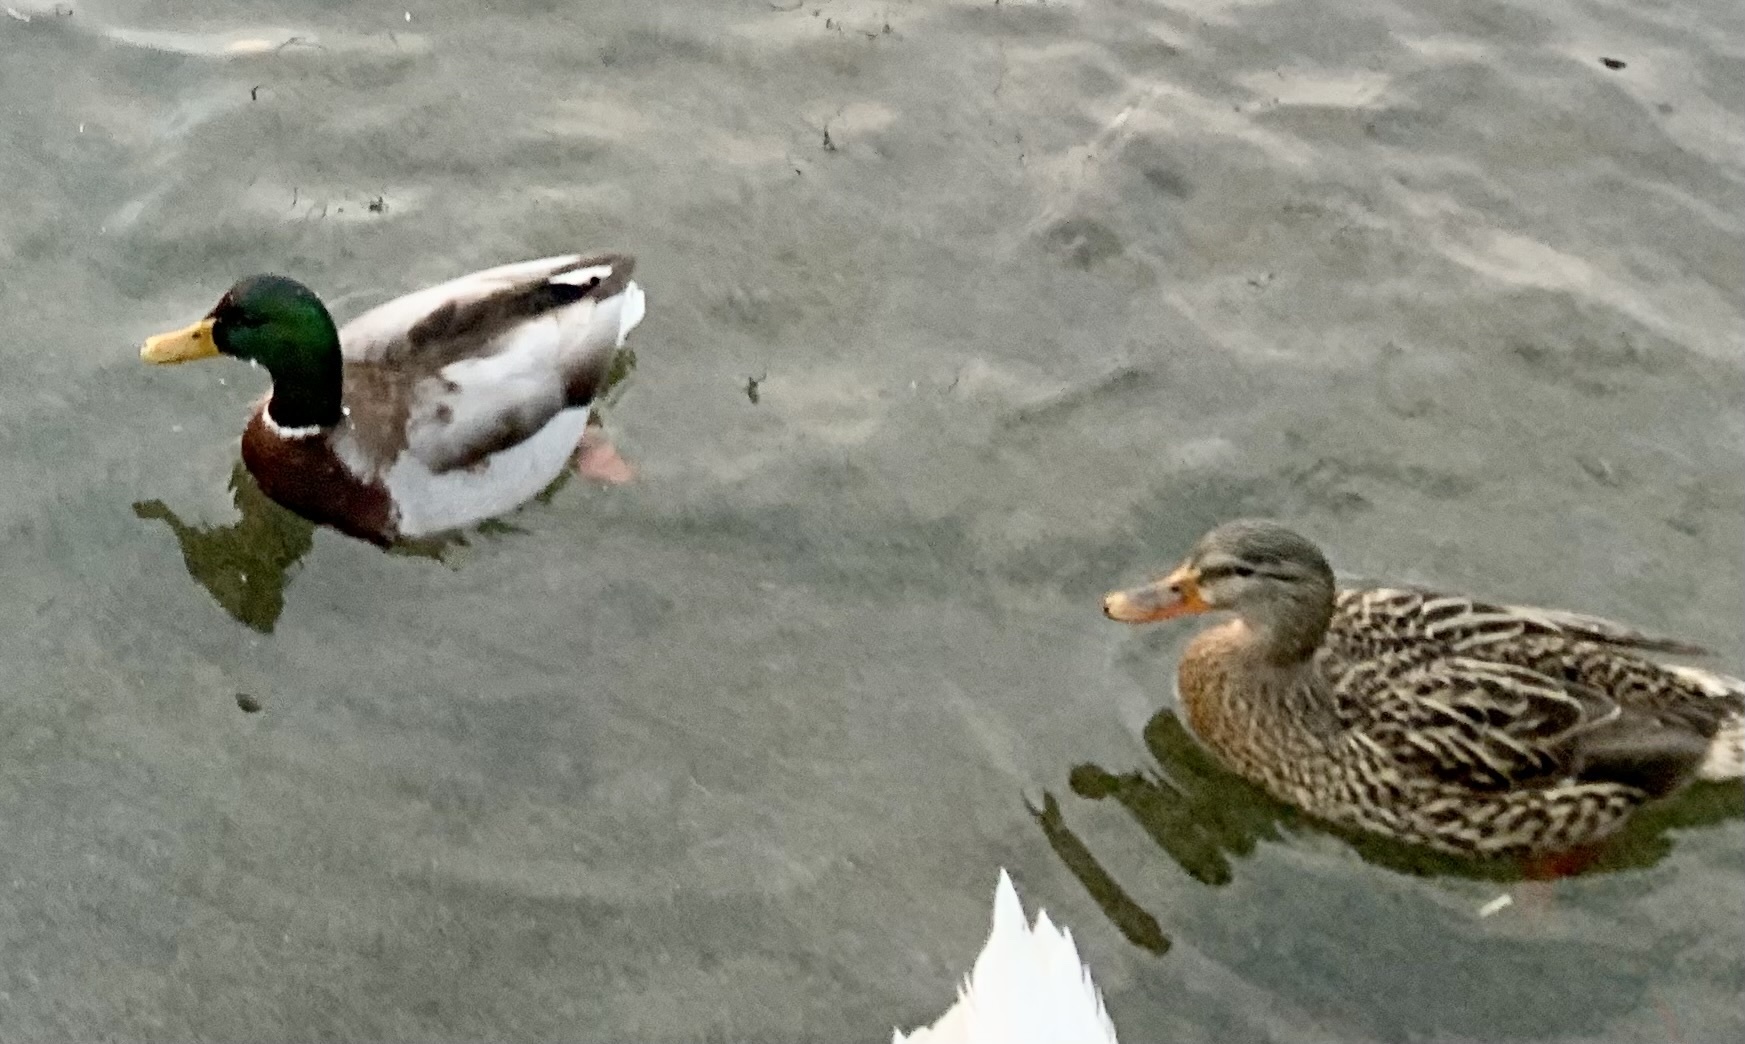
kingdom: Animalia
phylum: Chordata
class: Aves
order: Anseriformes
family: Anatidae
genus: Anas
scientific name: Anas platyrhynchos
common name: Mallard
